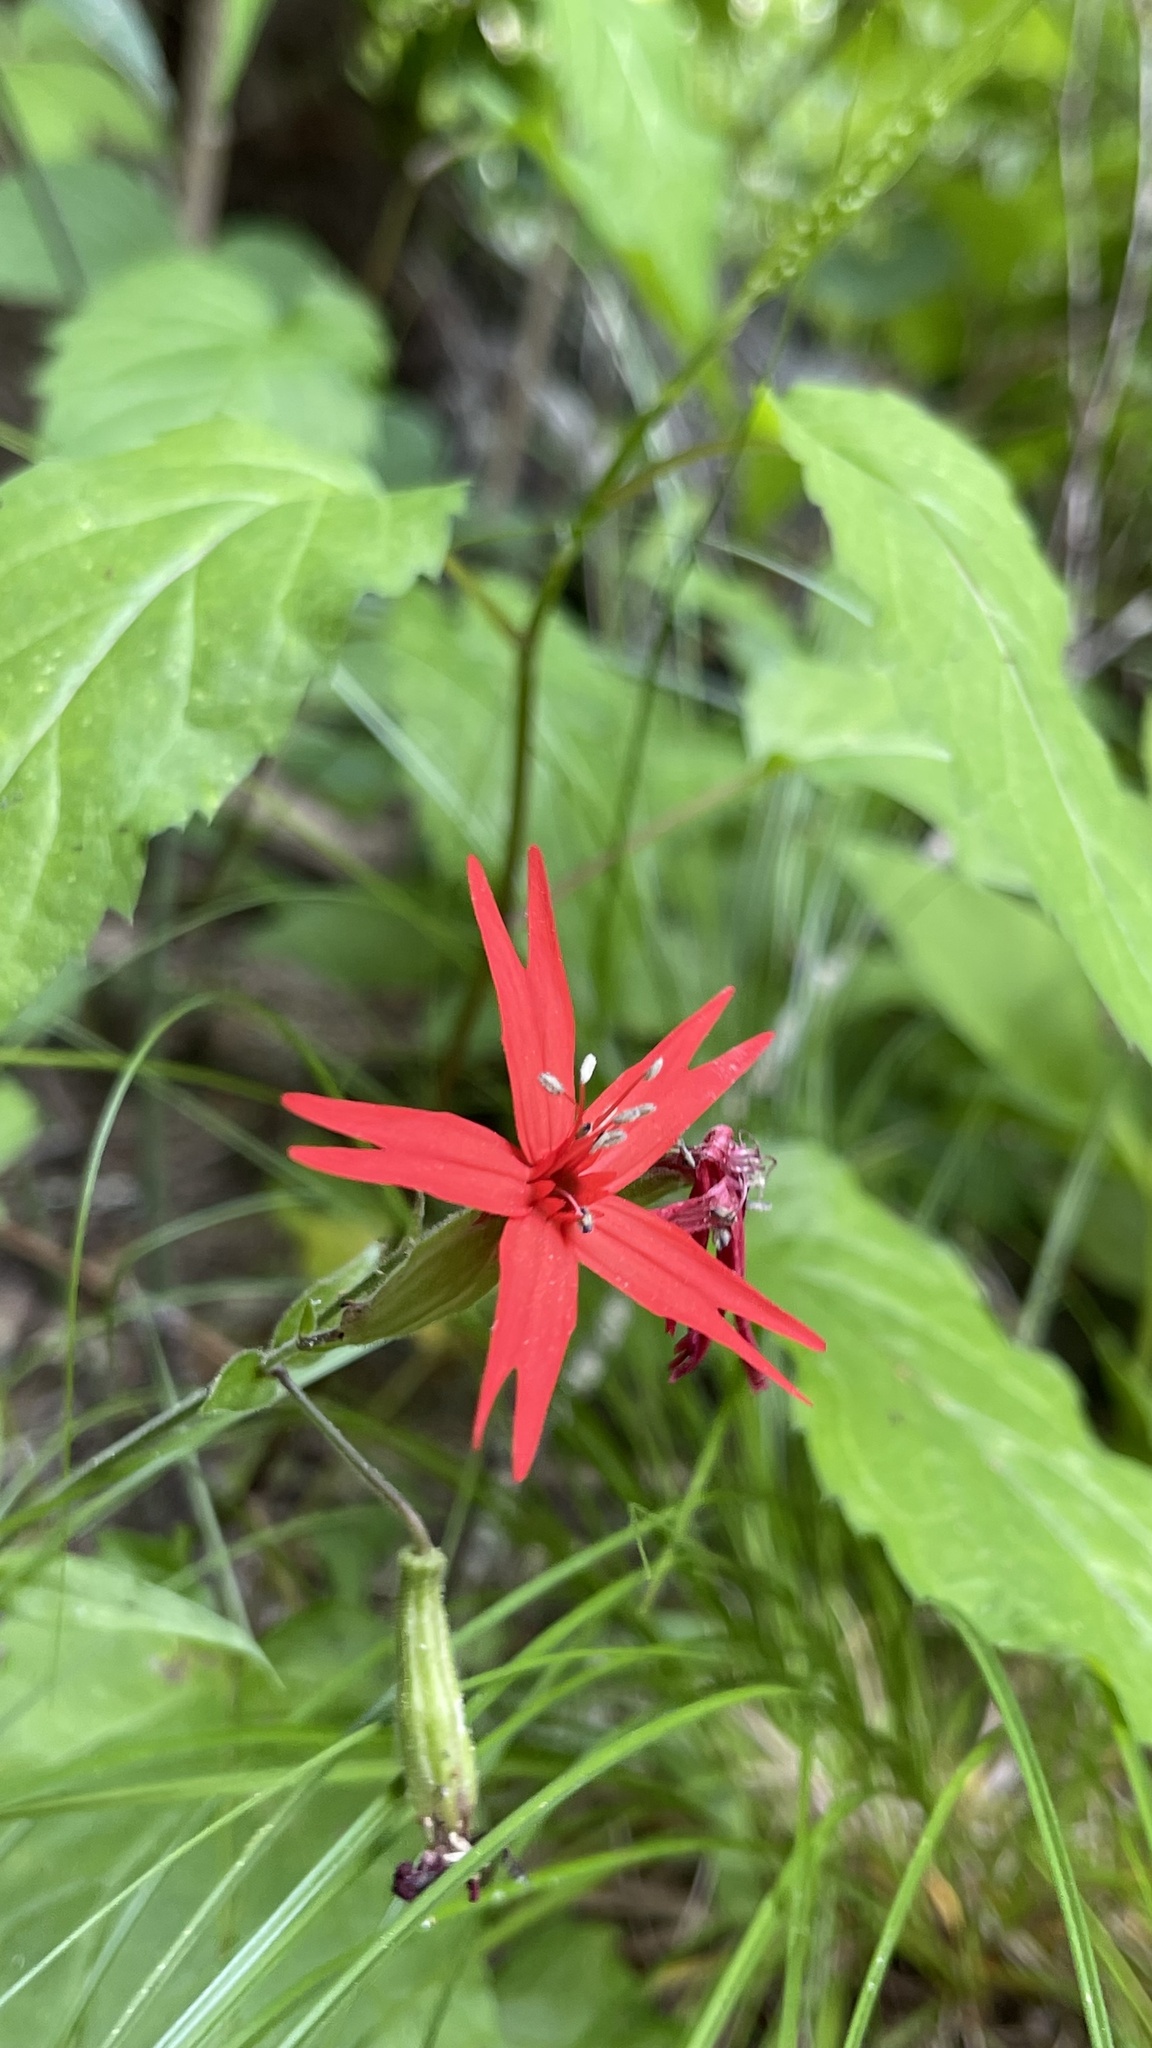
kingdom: Plantae
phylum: Tracheophyta
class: Magnoliopsida
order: Caryophyllales
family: Caryophyllaceae
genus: Silene
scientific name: Silene virginica
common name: Fire-pink
